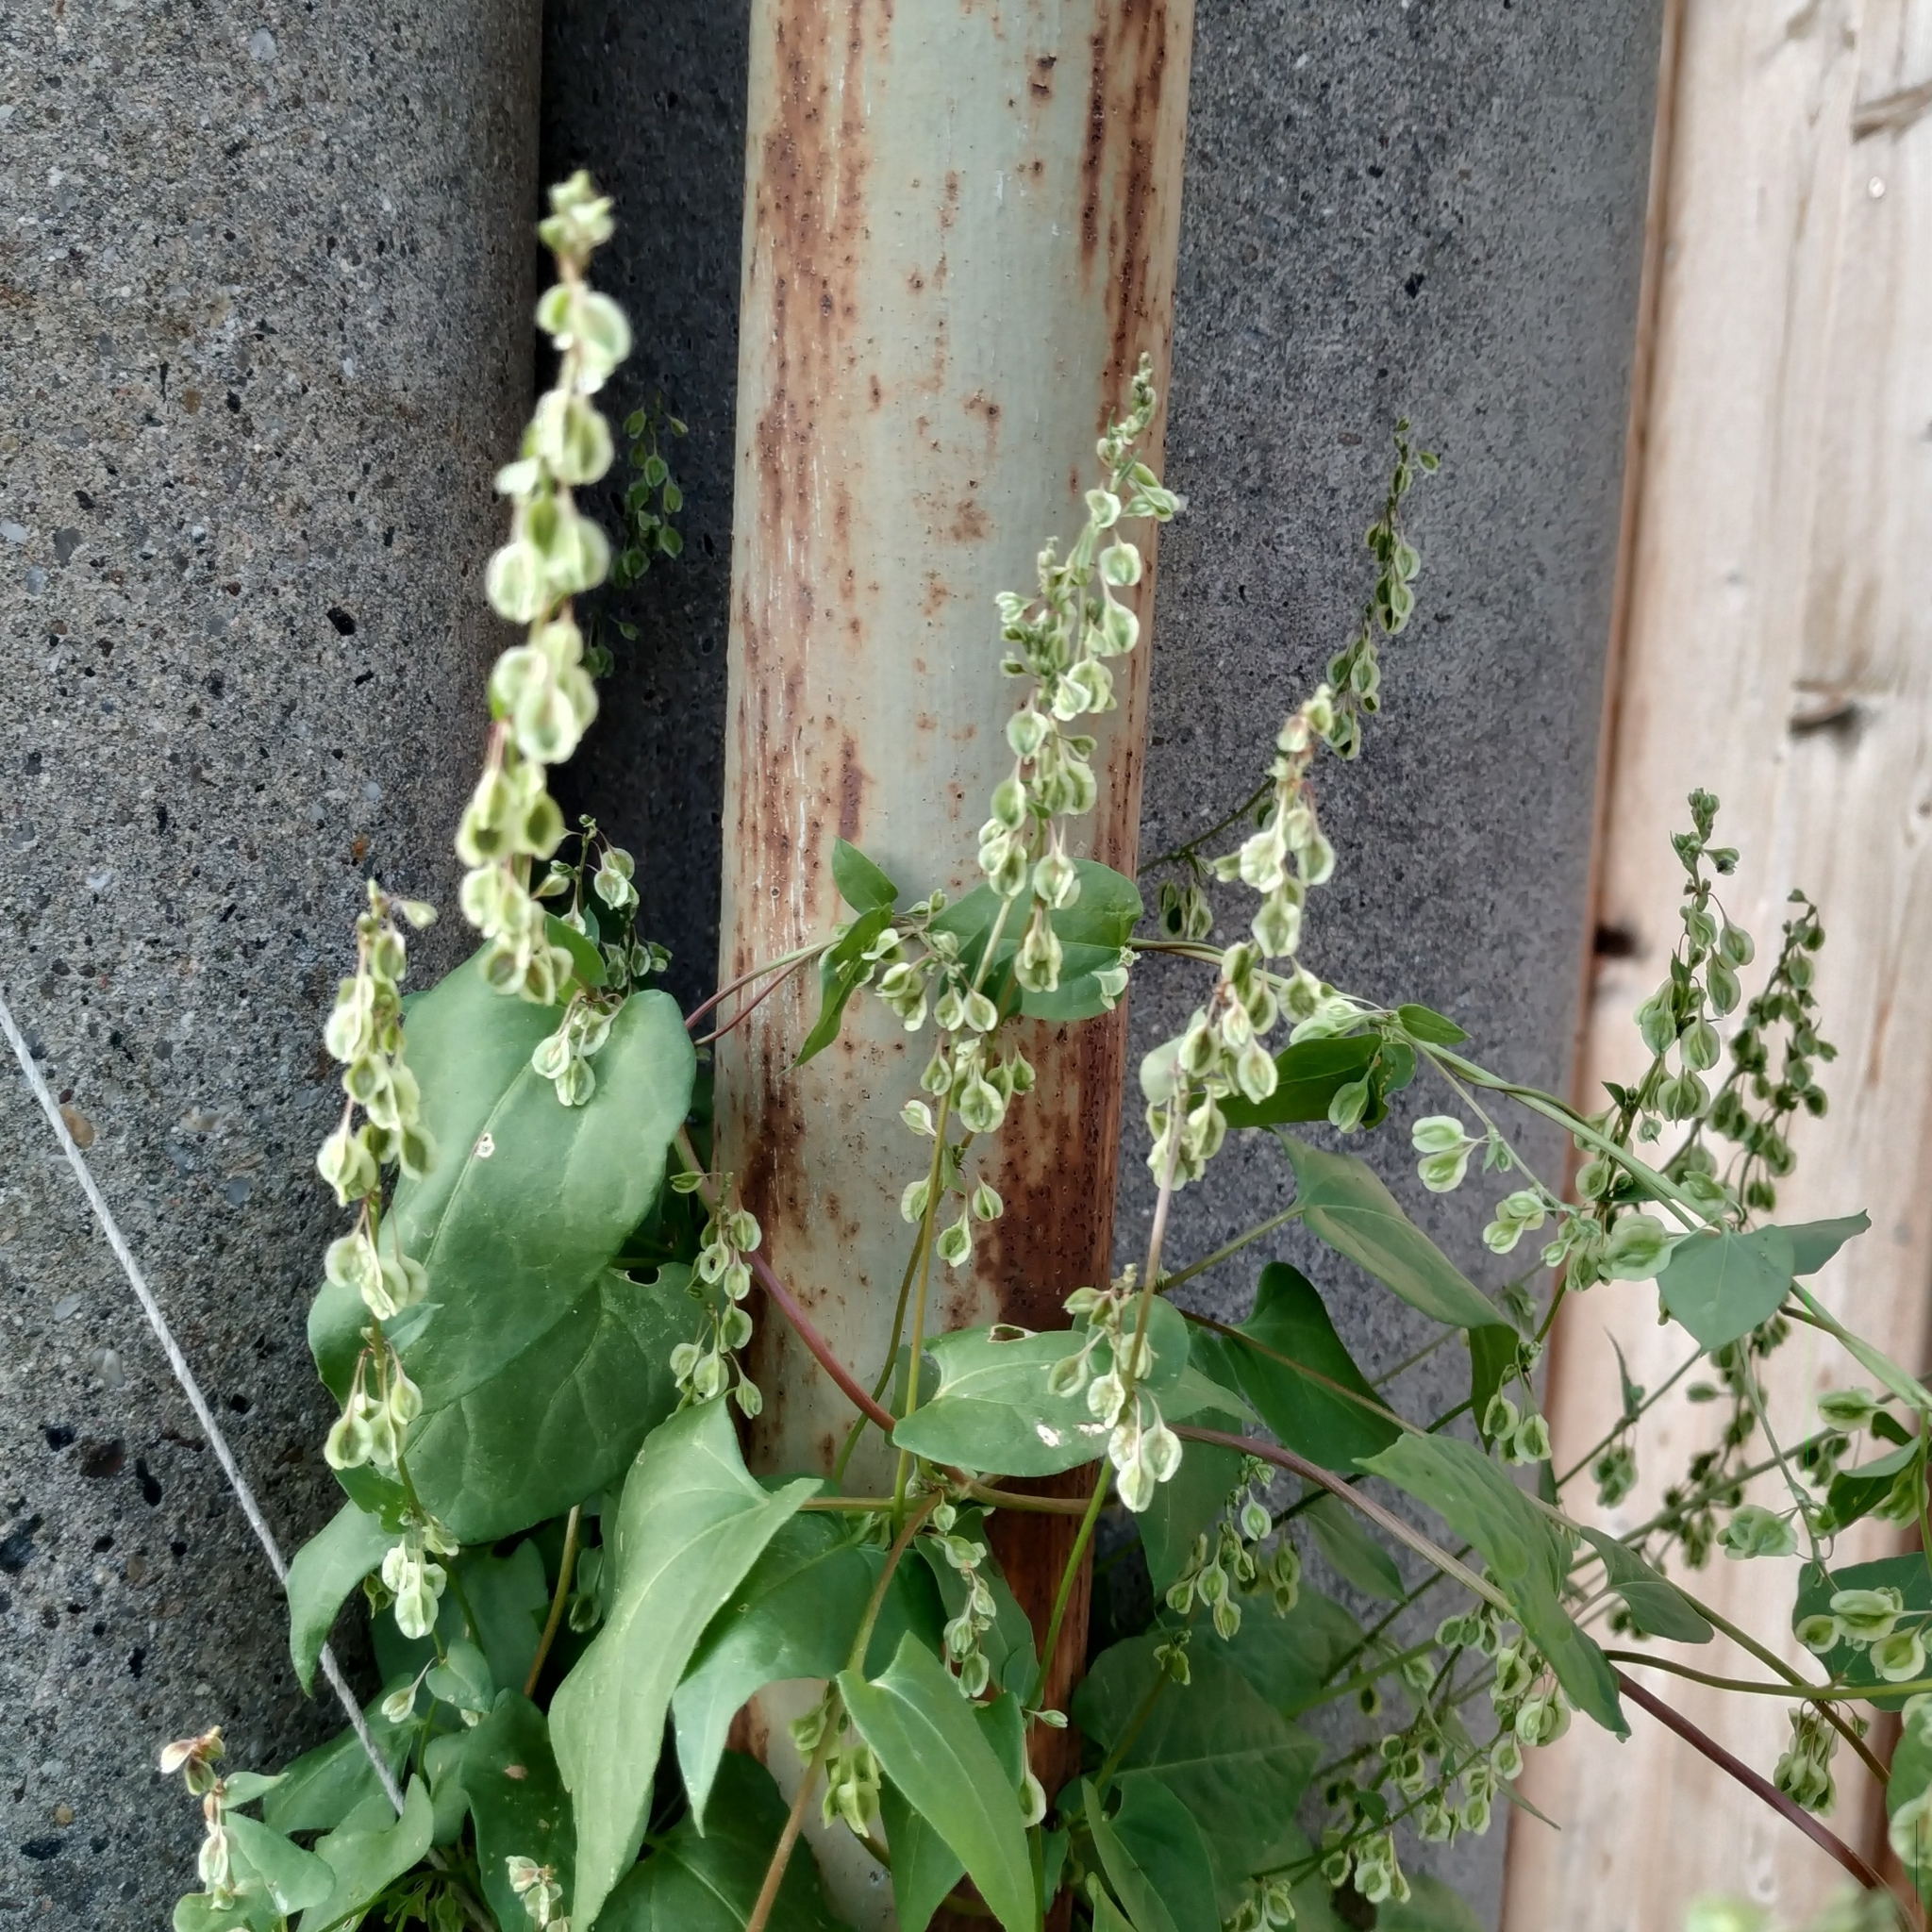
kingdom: Plantae
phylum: Tracheophyta
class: Magnoliopsida
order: Caryophyllales
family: Polygonaceae
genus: Fallopia
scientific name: Fallopia dumetorum
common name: Copse-bindweed
